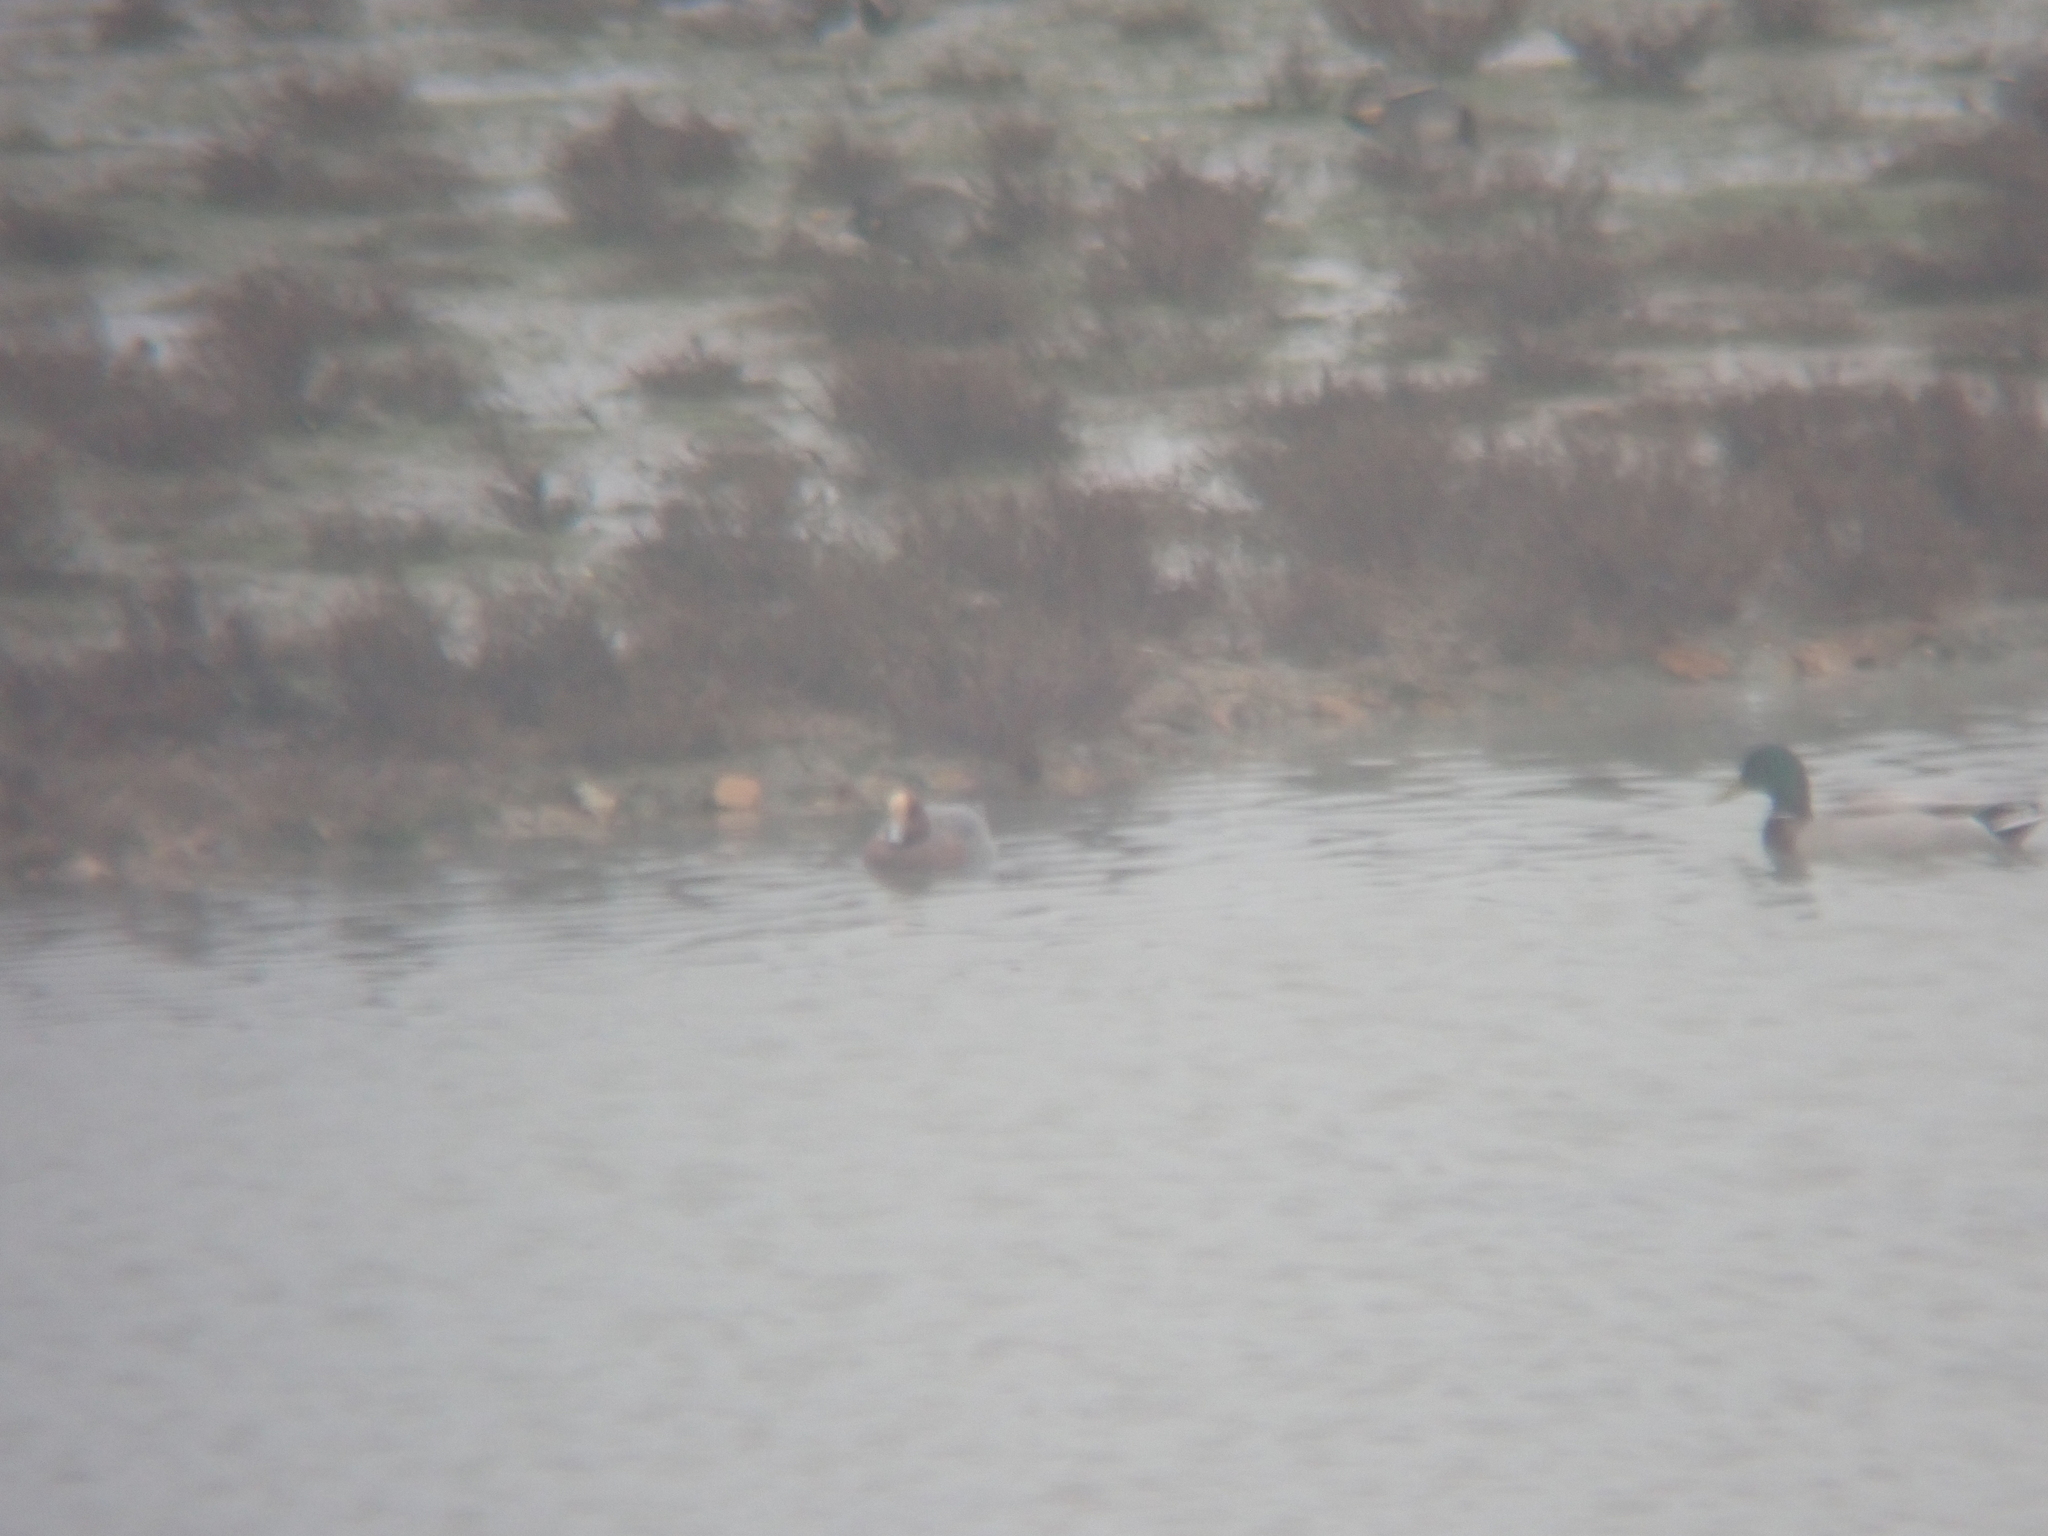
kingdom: Animalia
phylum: Chordata
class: Aves
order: Anseriformes
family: Anatidae
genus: Mareca
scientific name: Mareca penelope
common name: Eurasian wigeon
